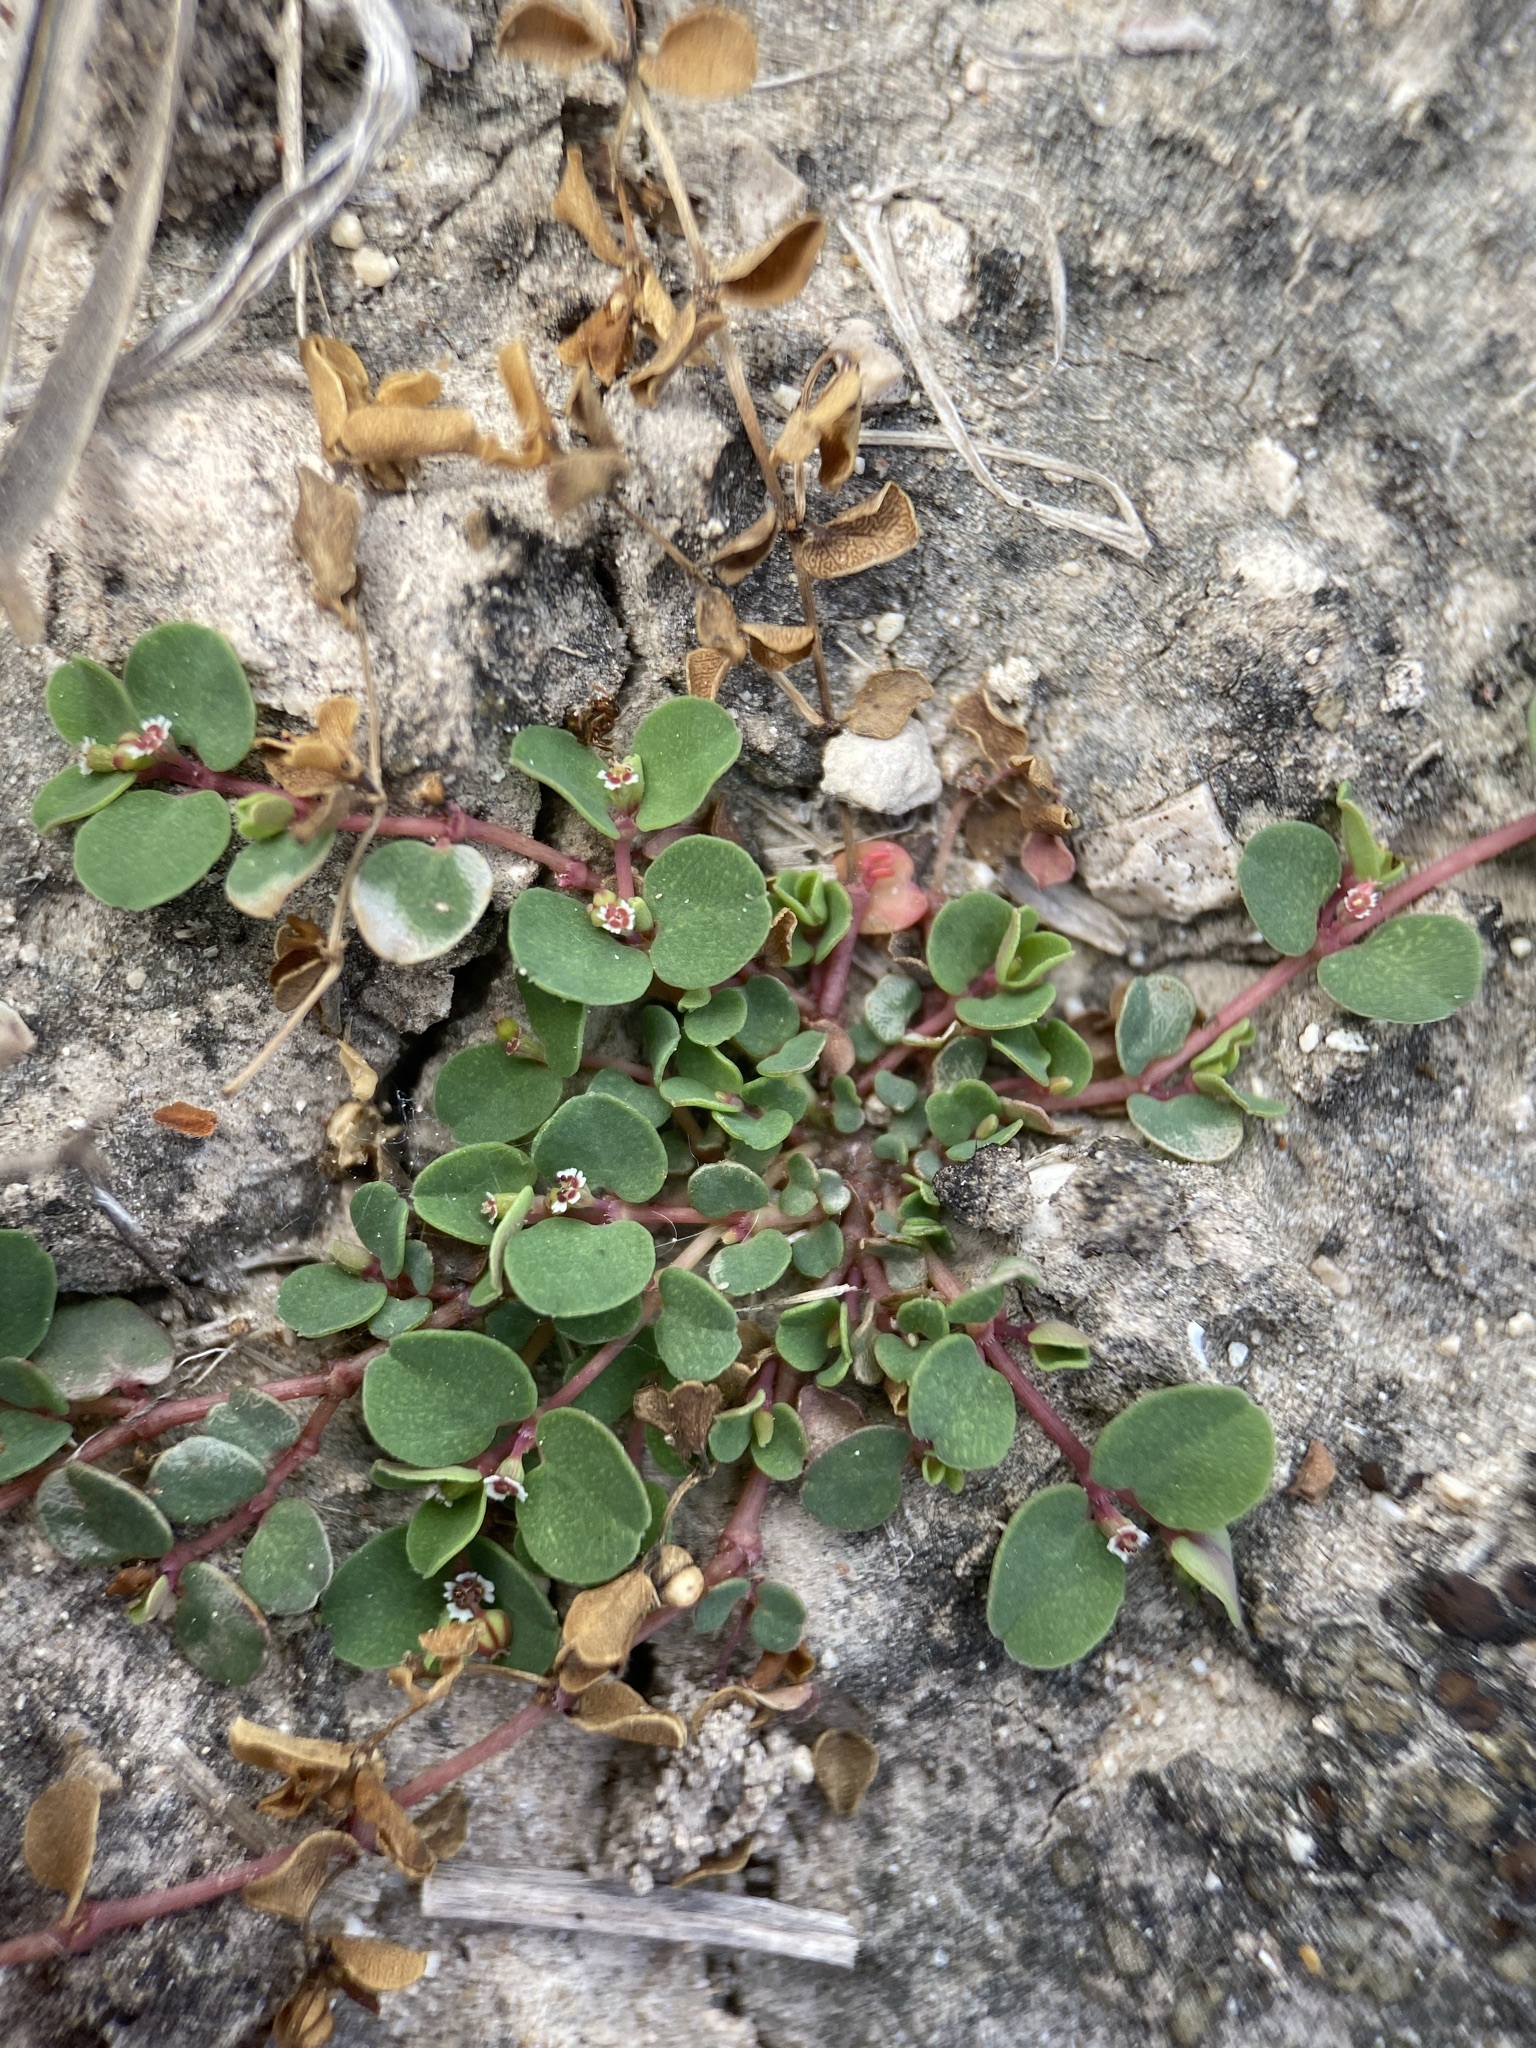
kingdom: Plantae
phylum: Tracheophyta
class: Magnoliopsida
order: Malpighiales
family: Euphorbiaceae
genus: Euphorbia
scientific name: Euphorbia serpens
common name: Matted sandmat
